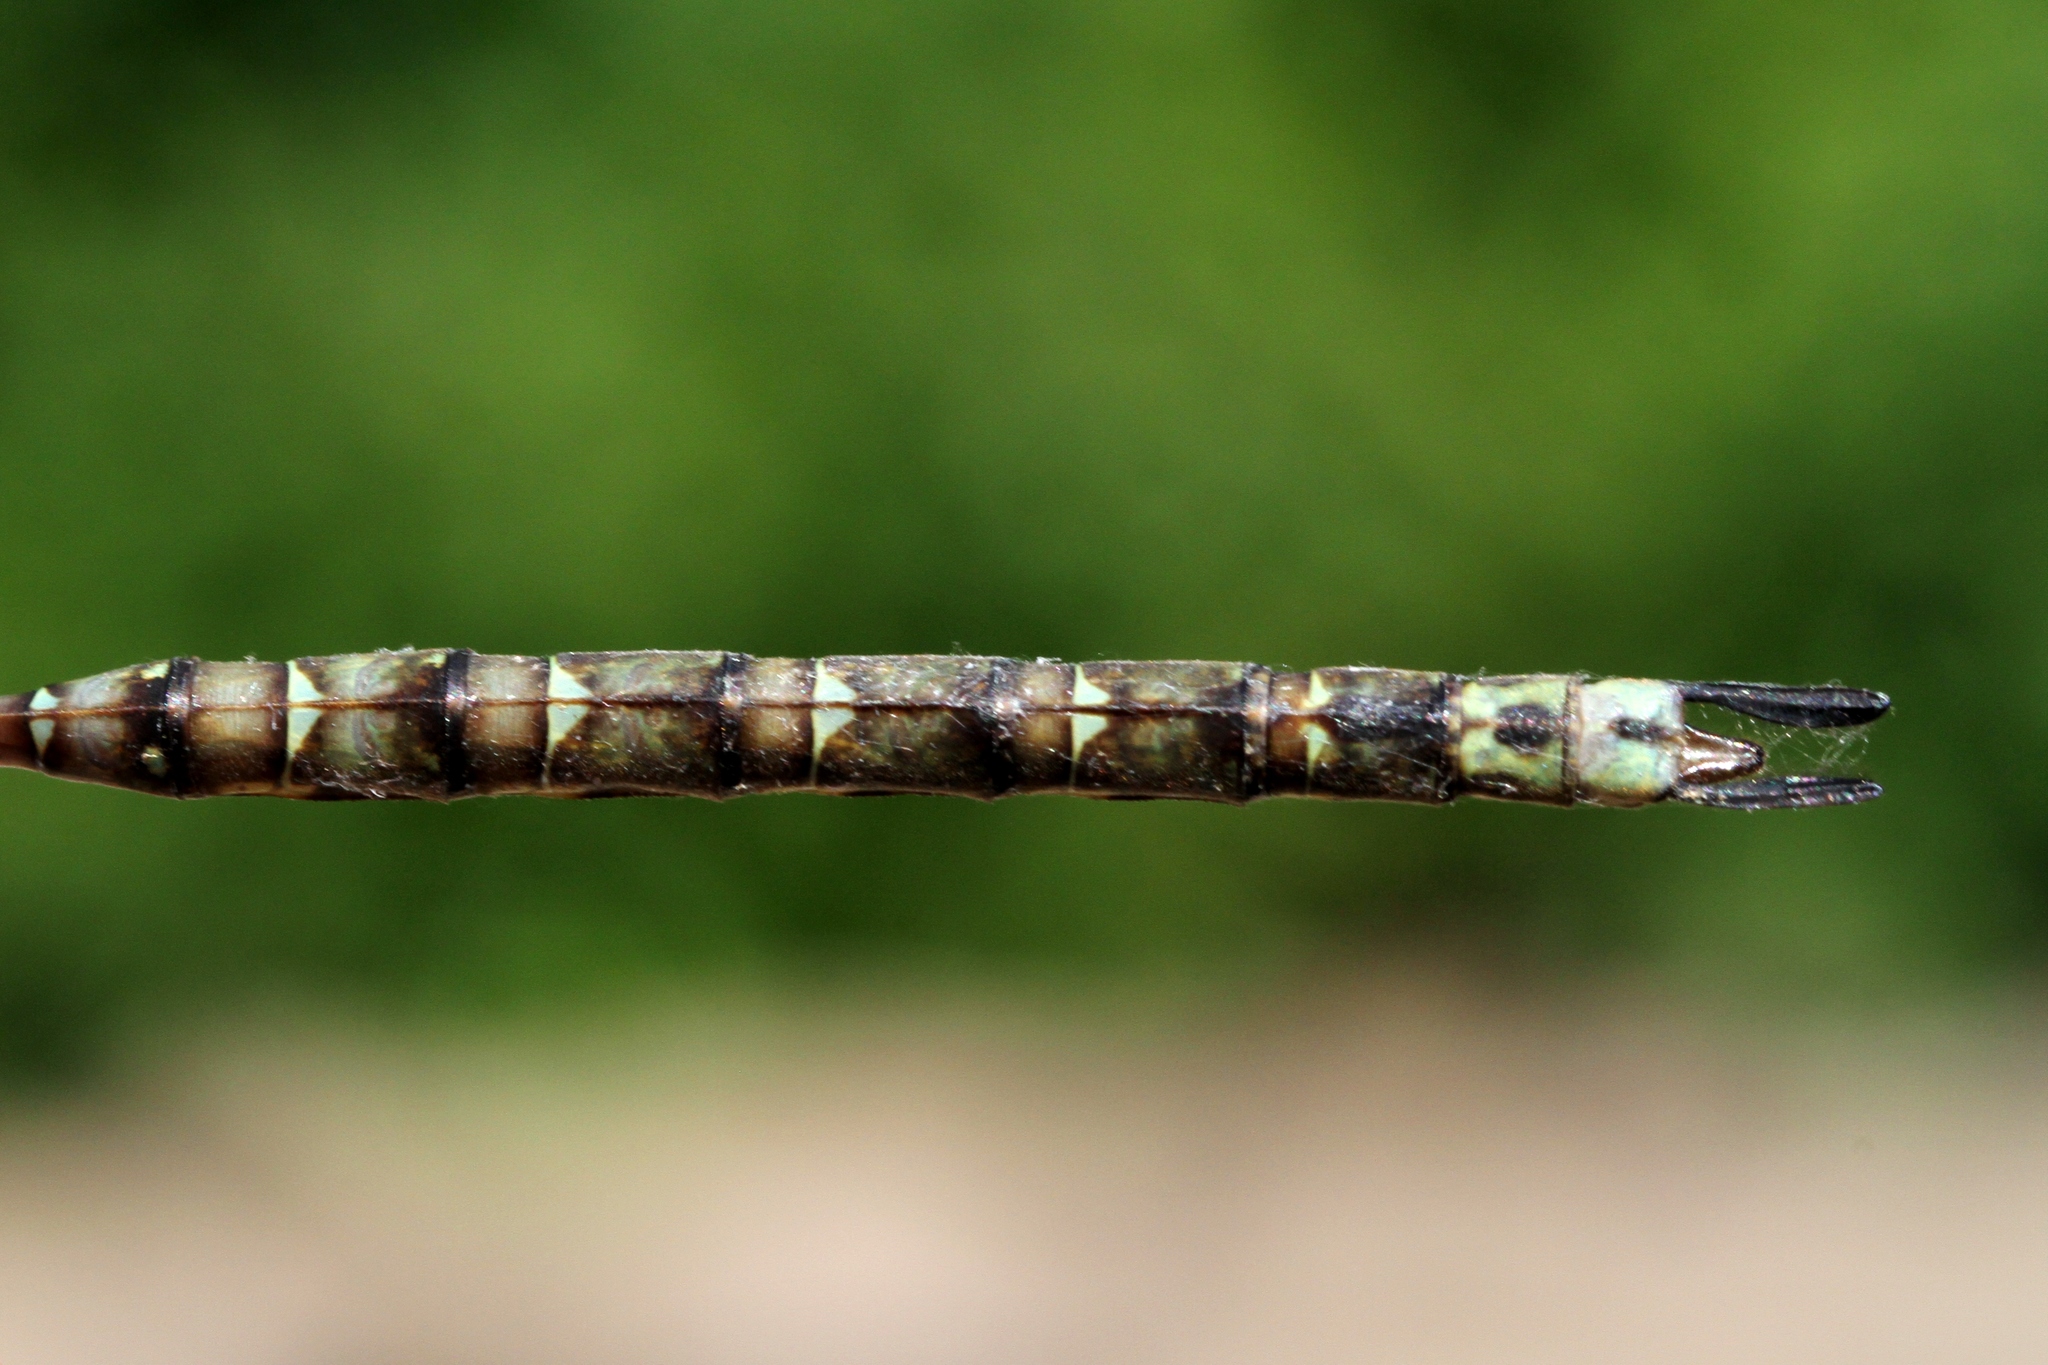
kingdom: Animalia
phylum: Arthropoda
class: Insecta
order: Odonata
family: Aeshnidae
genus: Boyeria
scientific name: Boyeria grafiana
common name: Ocellated darner
